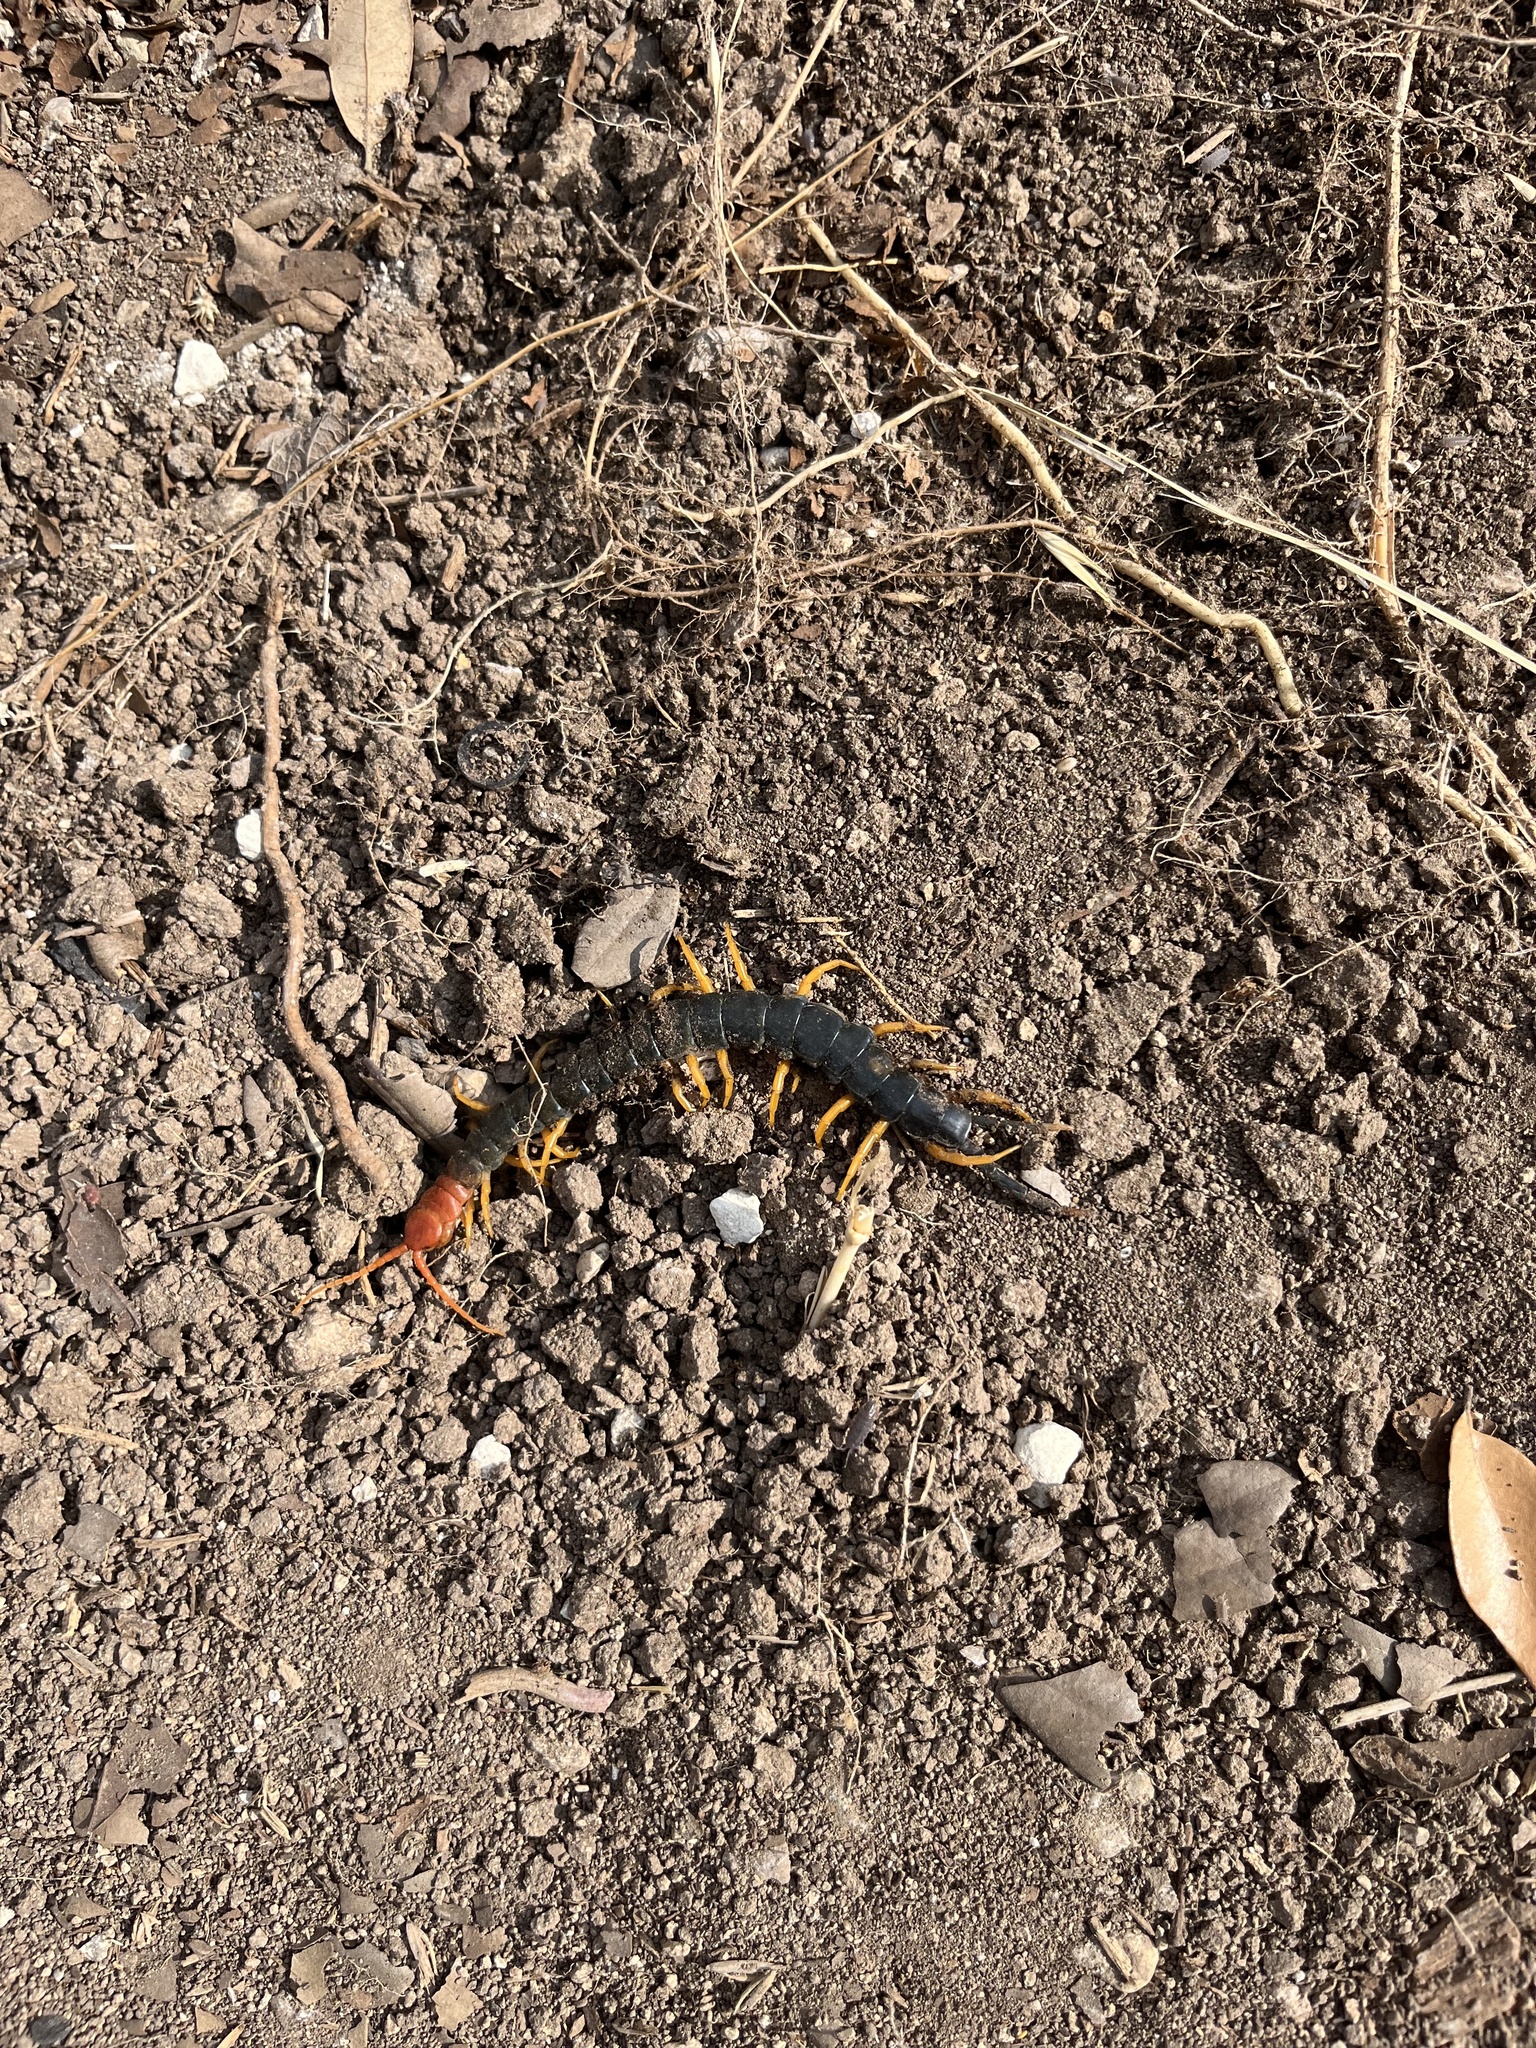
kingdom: Animalia
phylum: Arthropoda
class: Chilopoda
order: Scolopendromorpha
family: Scolopendridae
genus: Scolopendra
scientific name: Scolopendra heros
